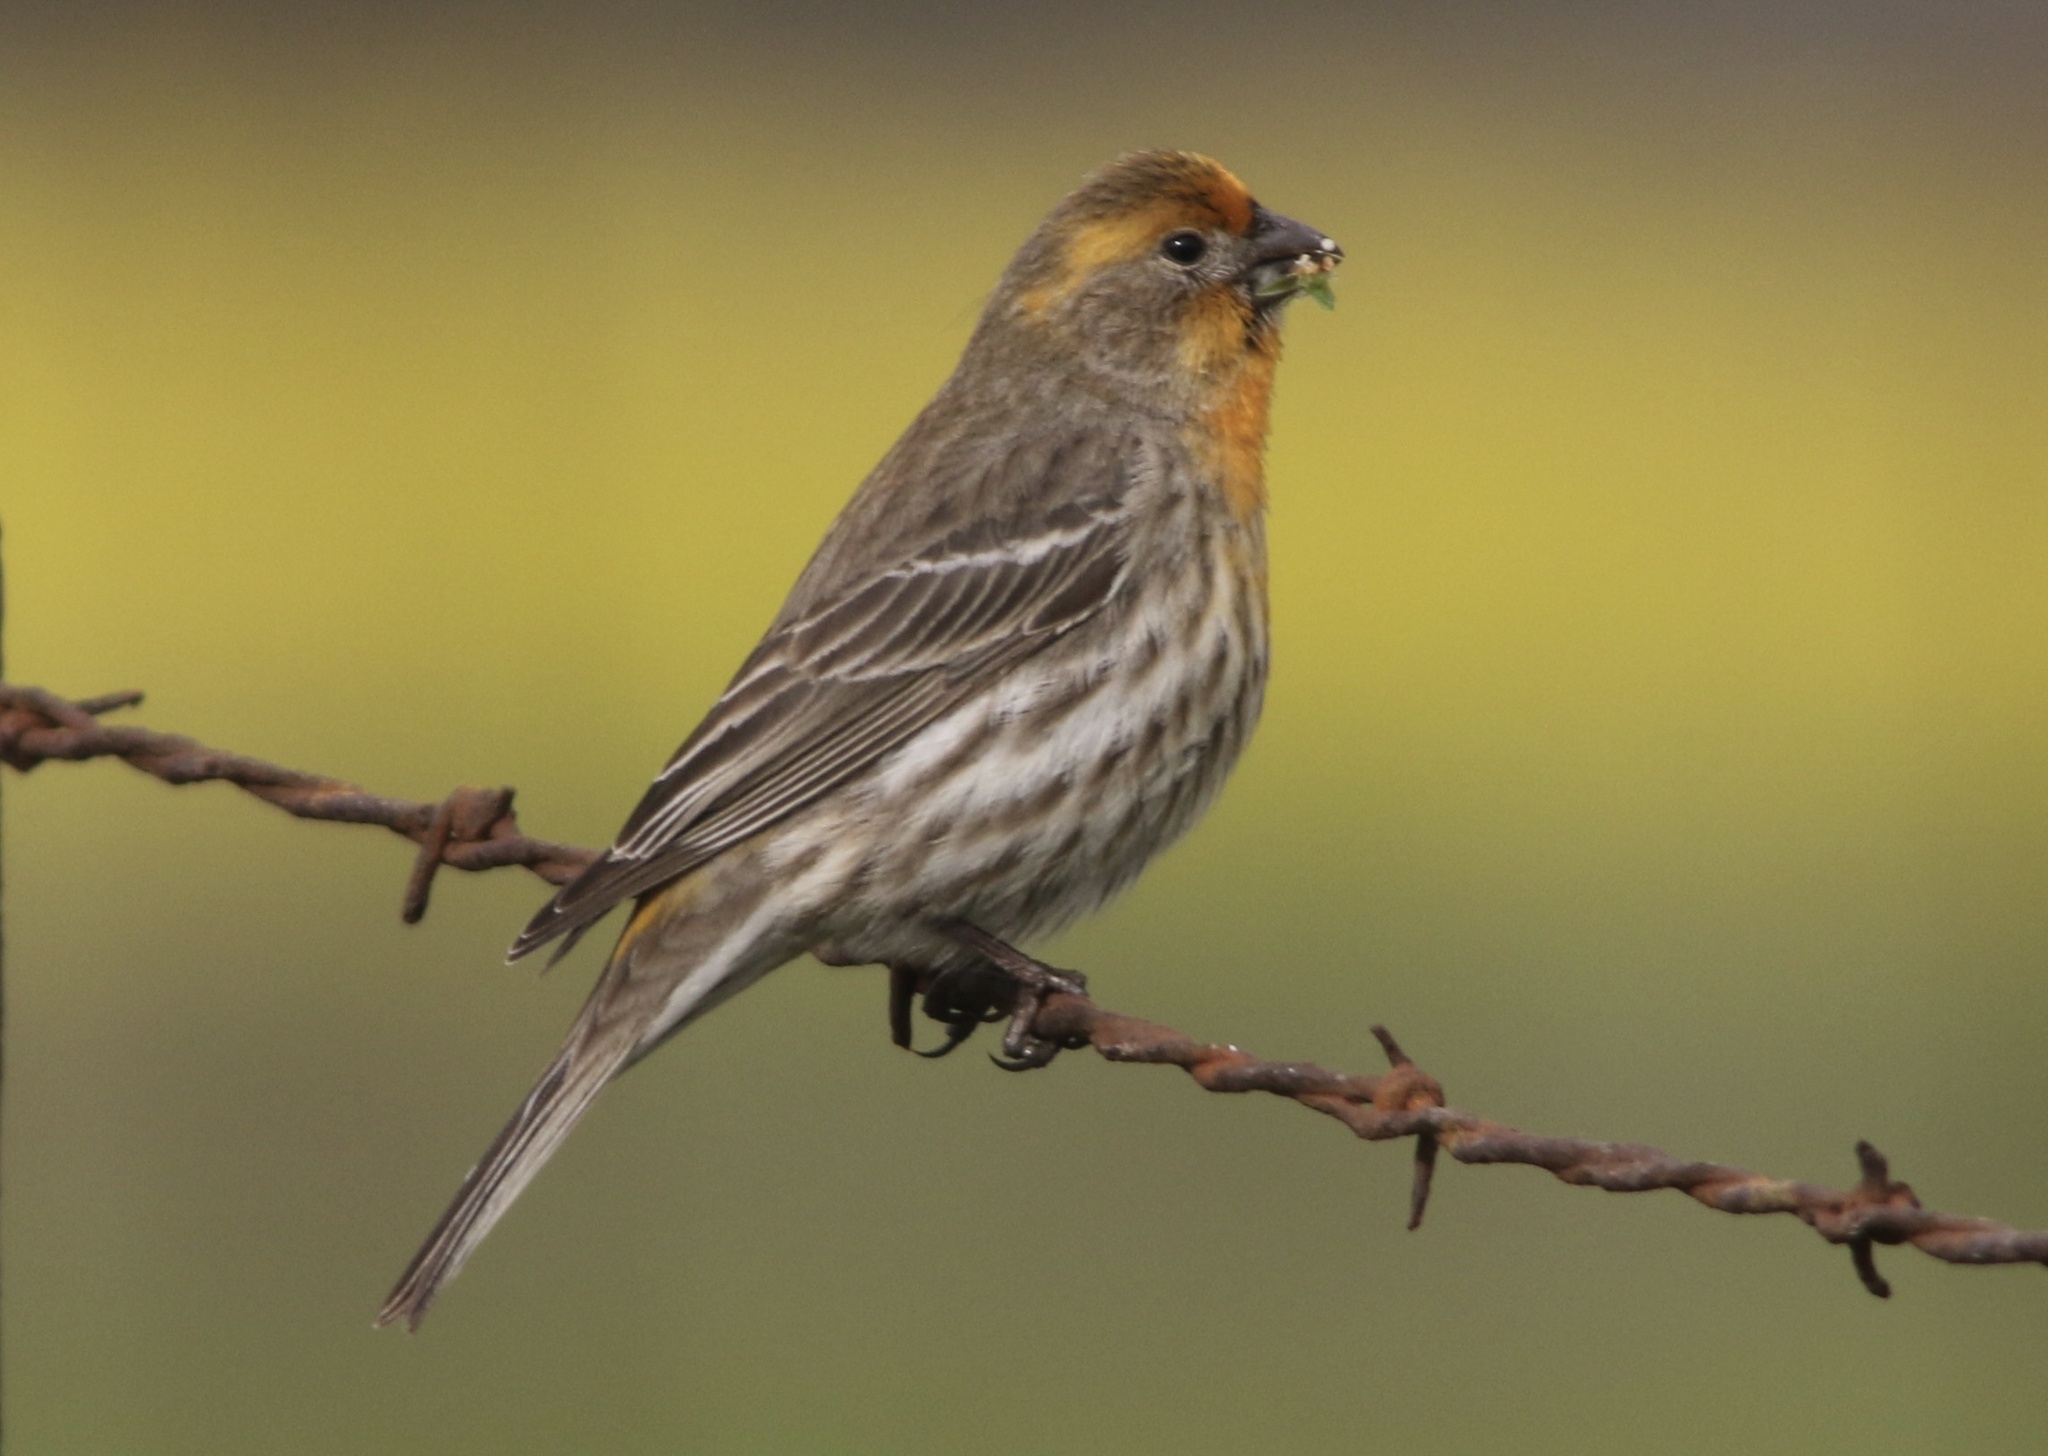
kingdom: Animalia
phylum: Chordata
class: Aves
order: Passeriformes
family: Fringillidae
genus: Haemorhous
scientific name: Haemorhous mexicanus
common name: House finch
